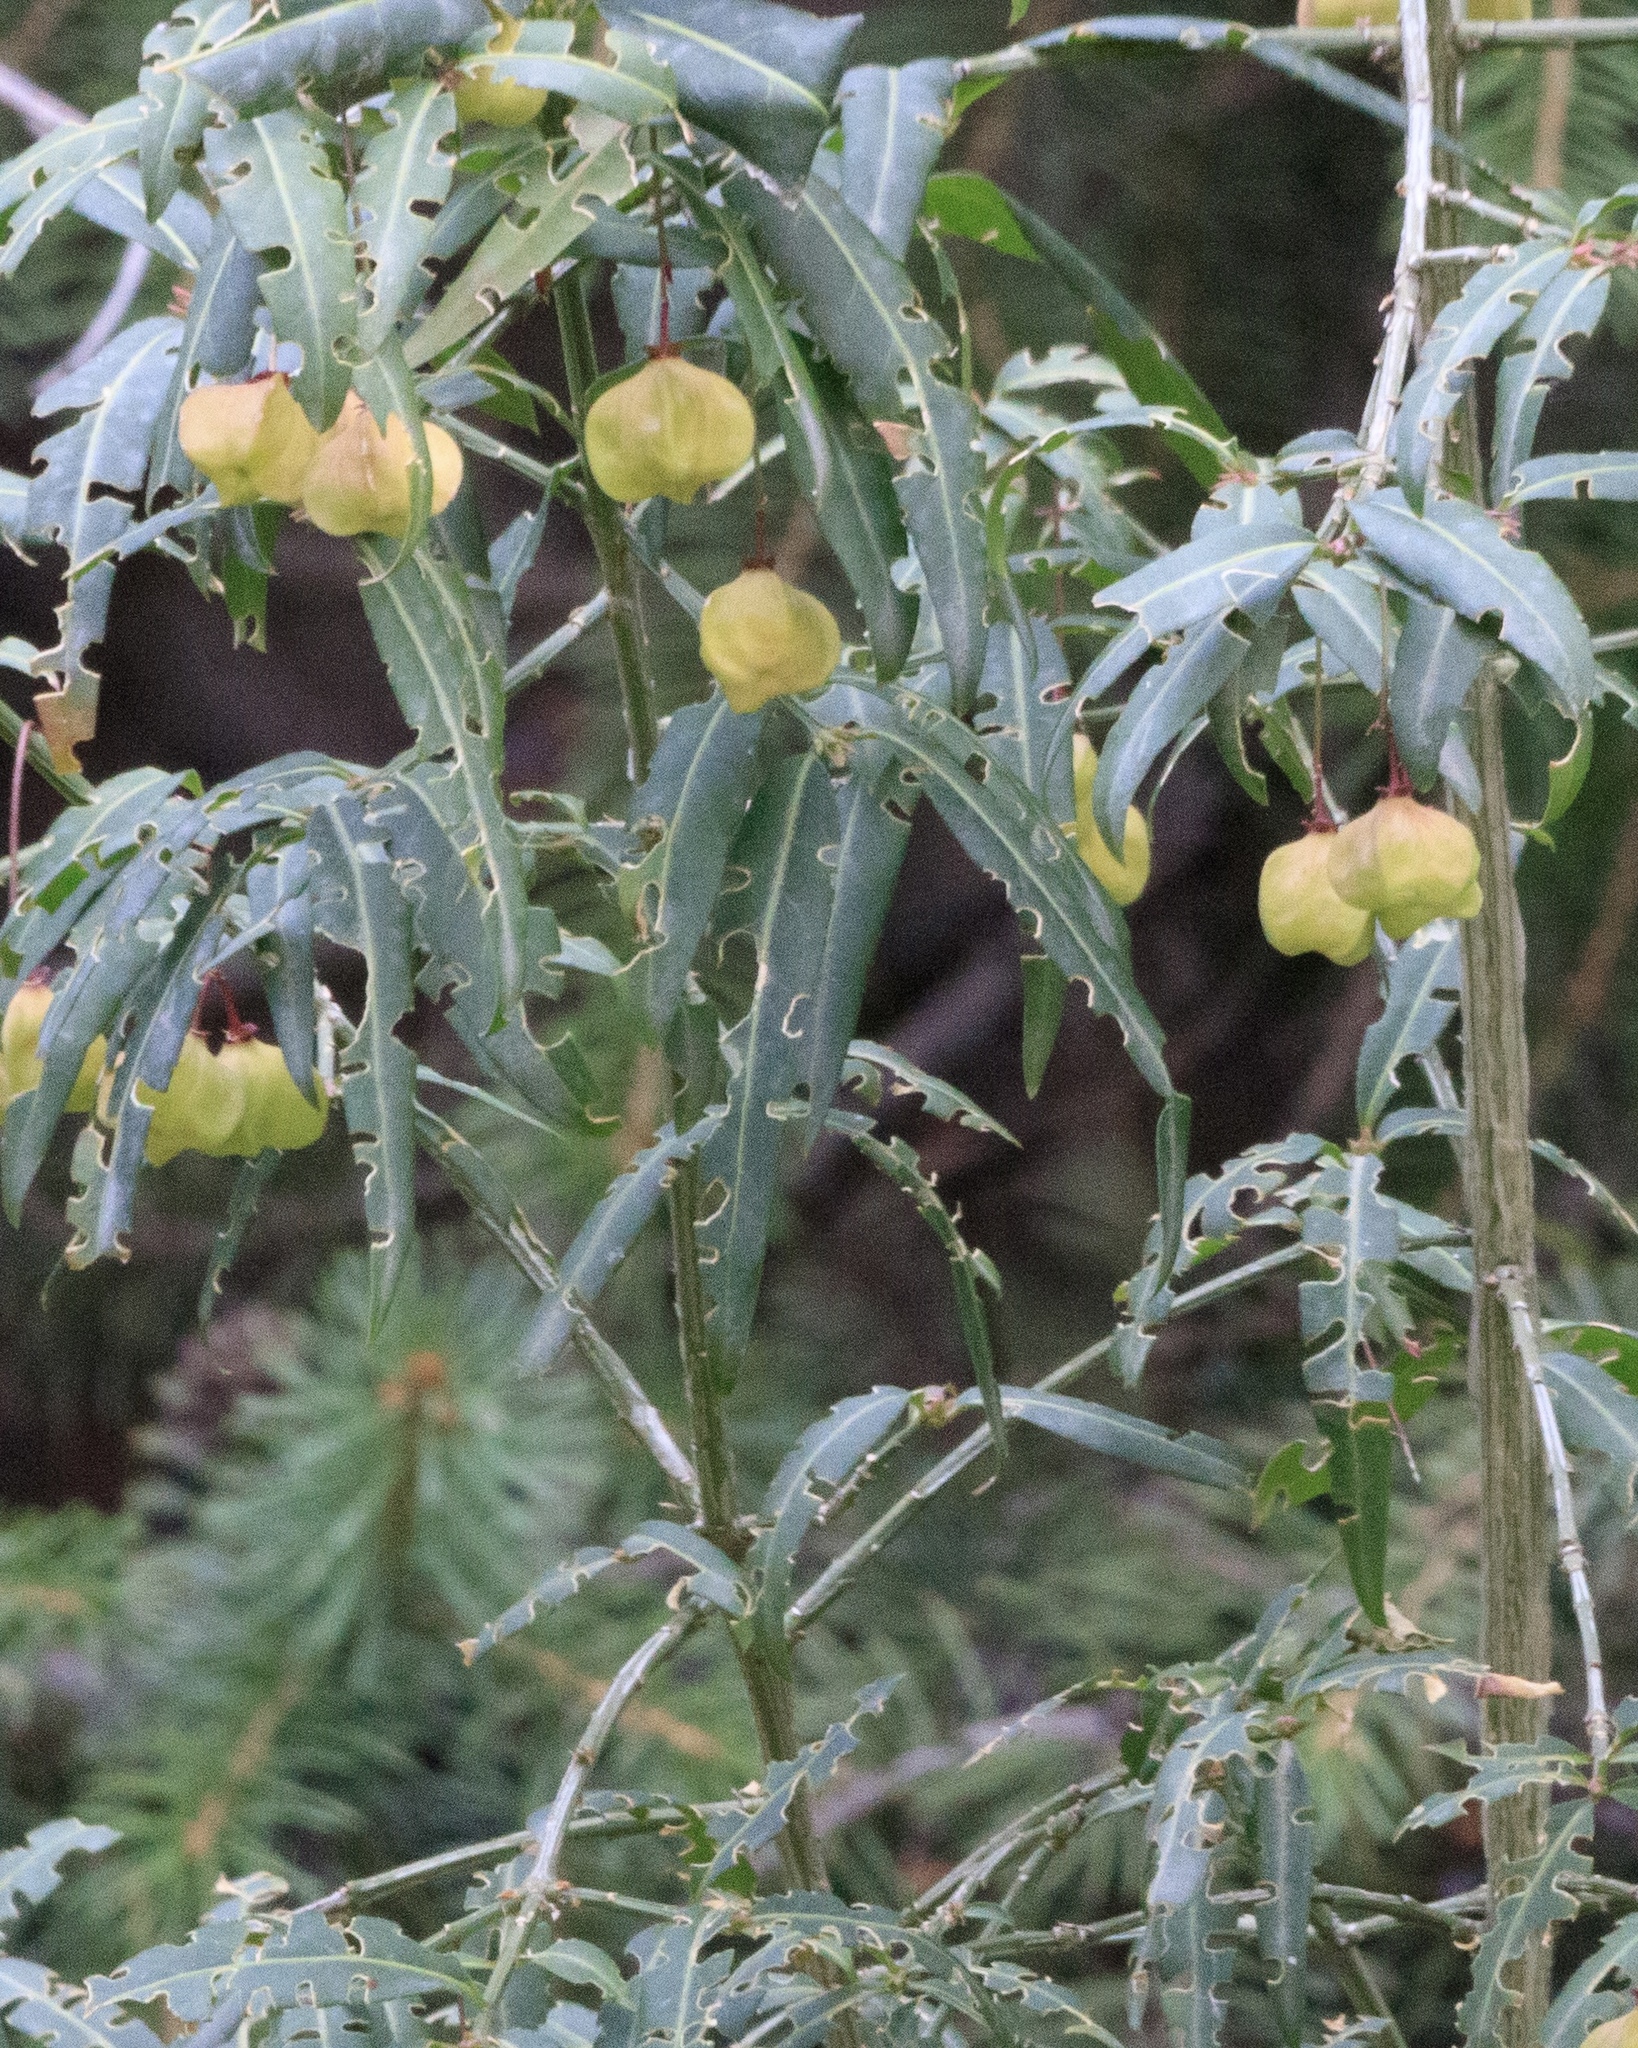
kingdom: Plantae
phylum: Tracheophyta
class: Magnoliopsida
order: Celastrales
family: Celastraceae
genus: Euonymus
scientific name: Euonymus semenovii
